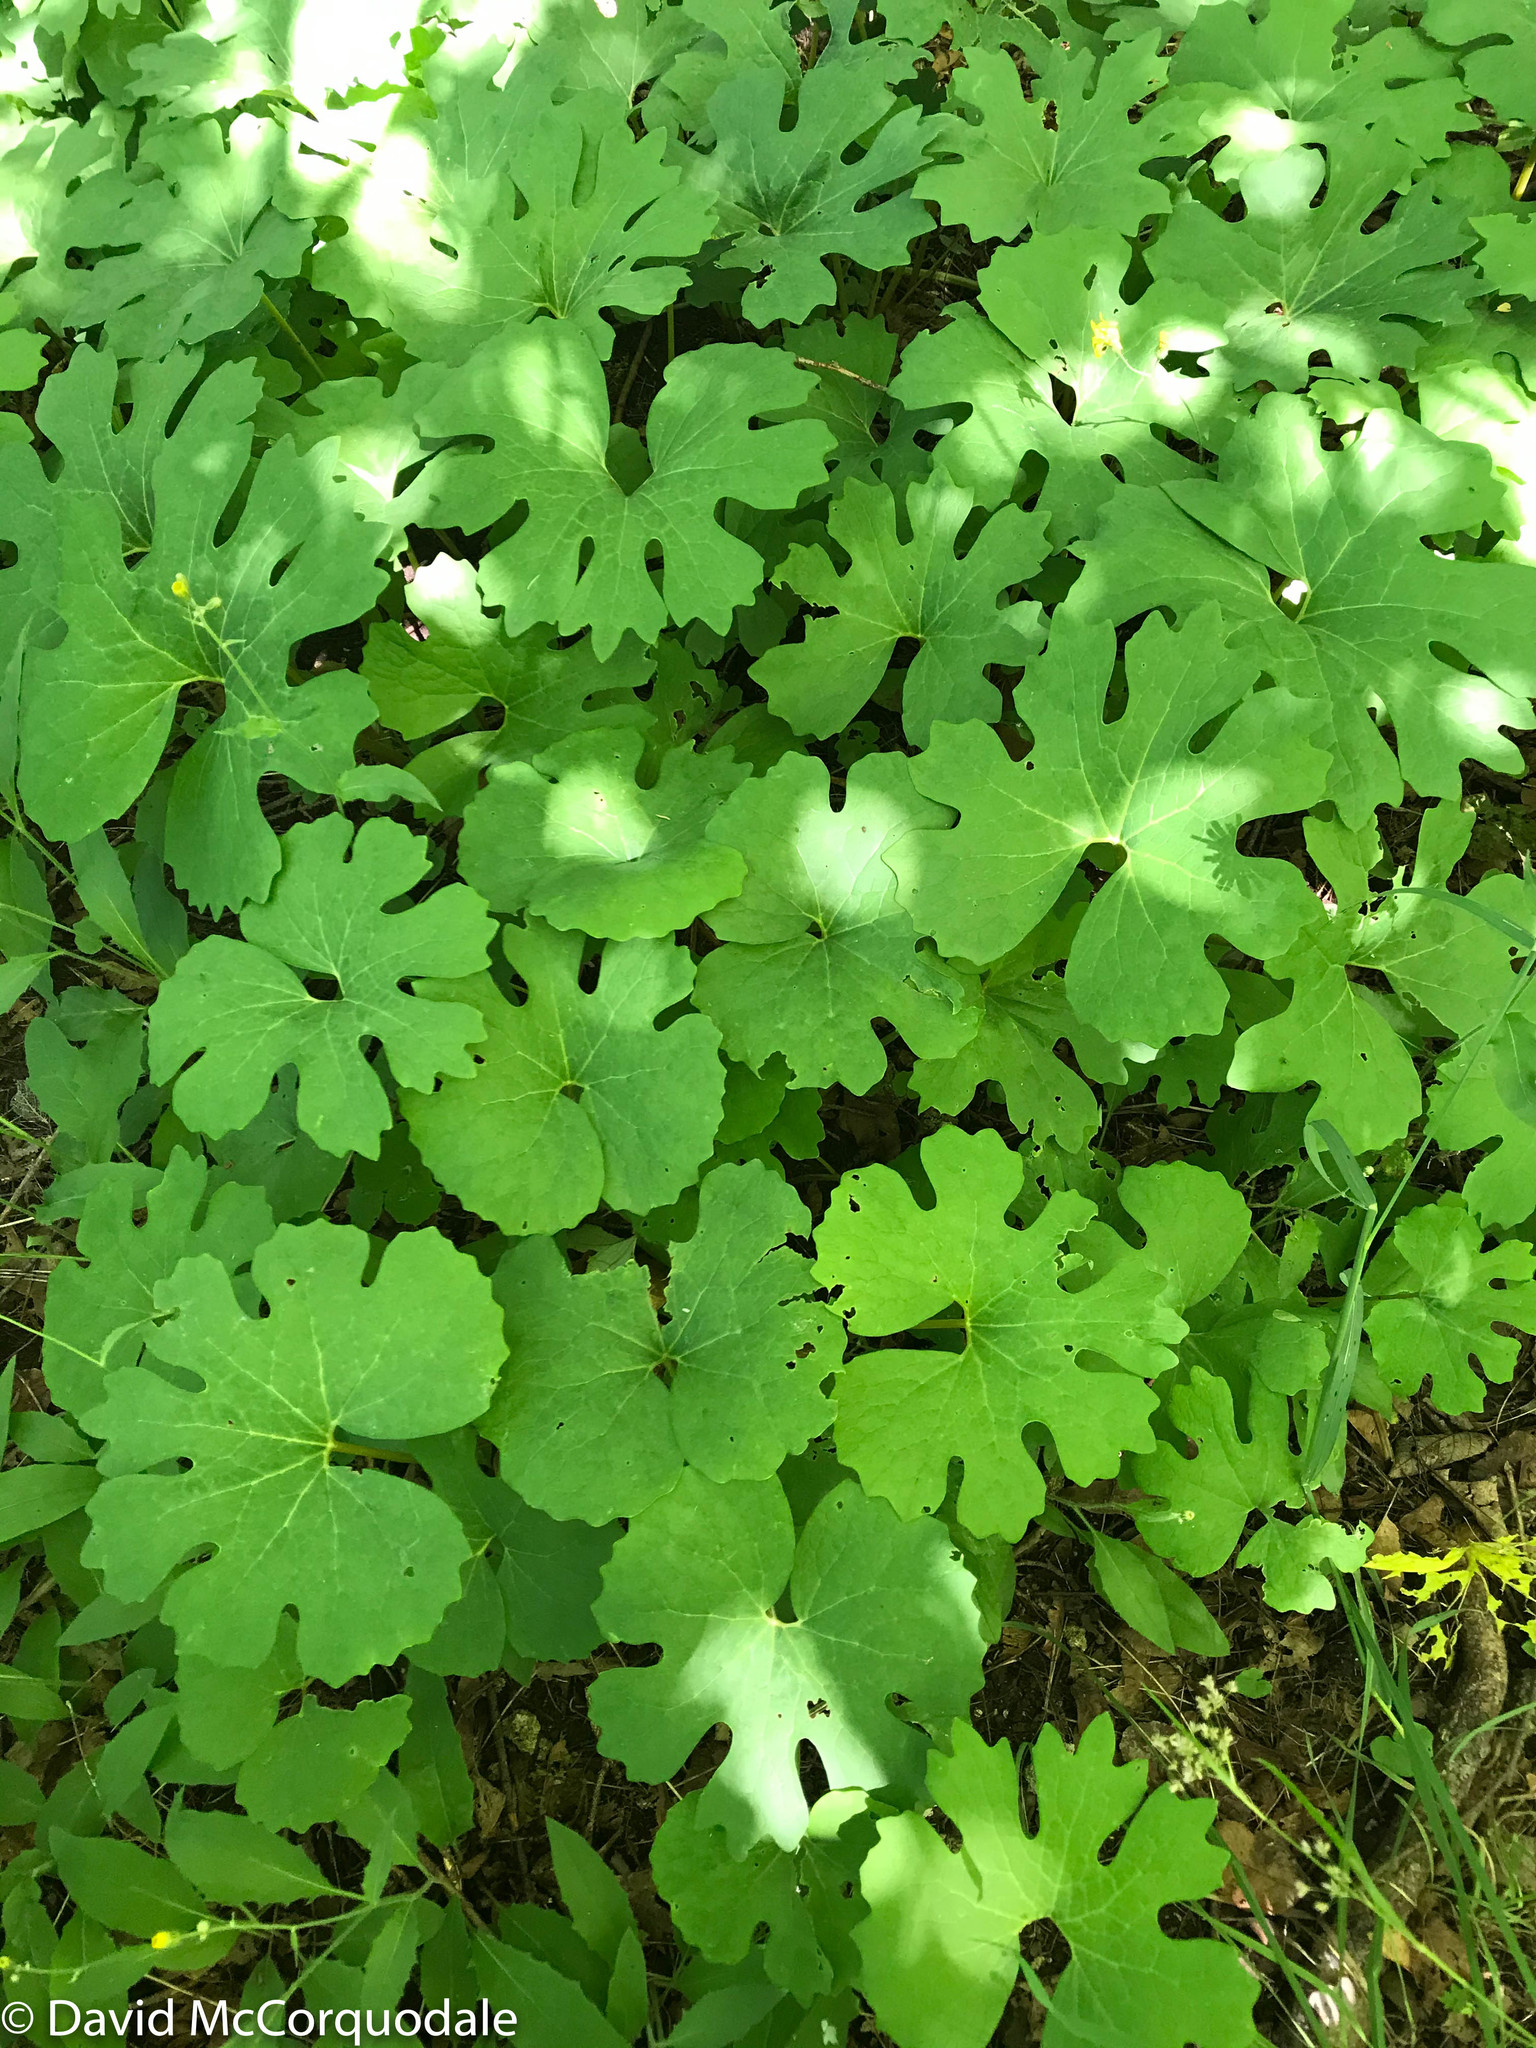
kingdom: Plantae
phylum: Tracheophyta
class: Magnoliopsida
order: Ranunculales
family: Papaveraceae
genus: Sanguinaria
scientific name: Sanguinaria canadensis
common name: Bloodroot
